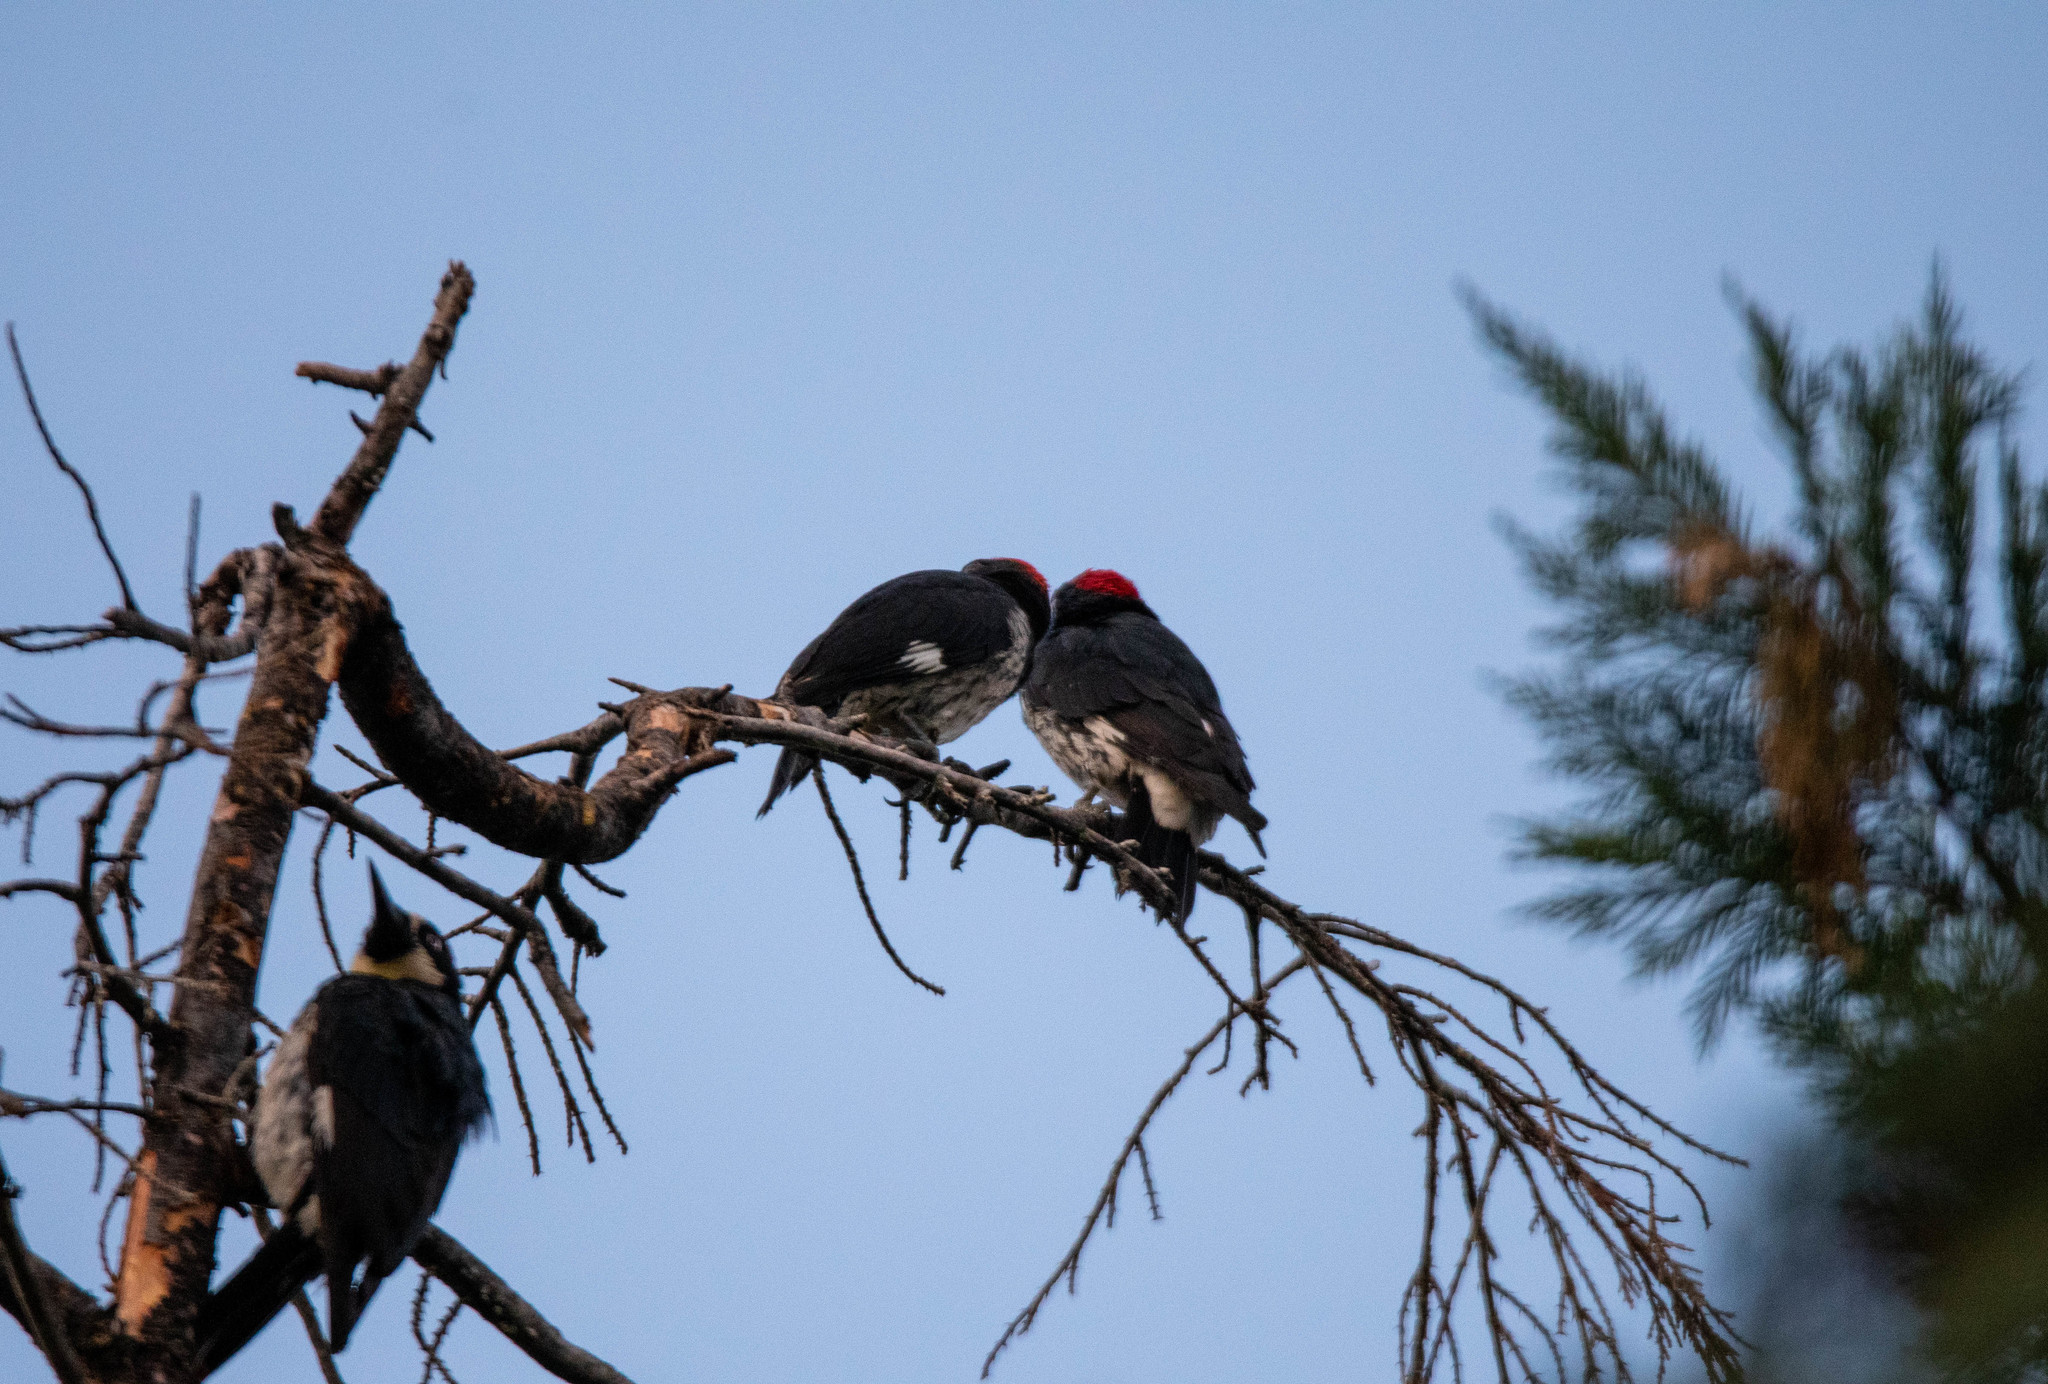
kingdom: Animalia
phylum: Chordata
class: Aves
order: Piciformes
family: Picidae
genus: Melanerpes
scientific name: Melanerpes formicivorus
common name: Acorn woodpecker
